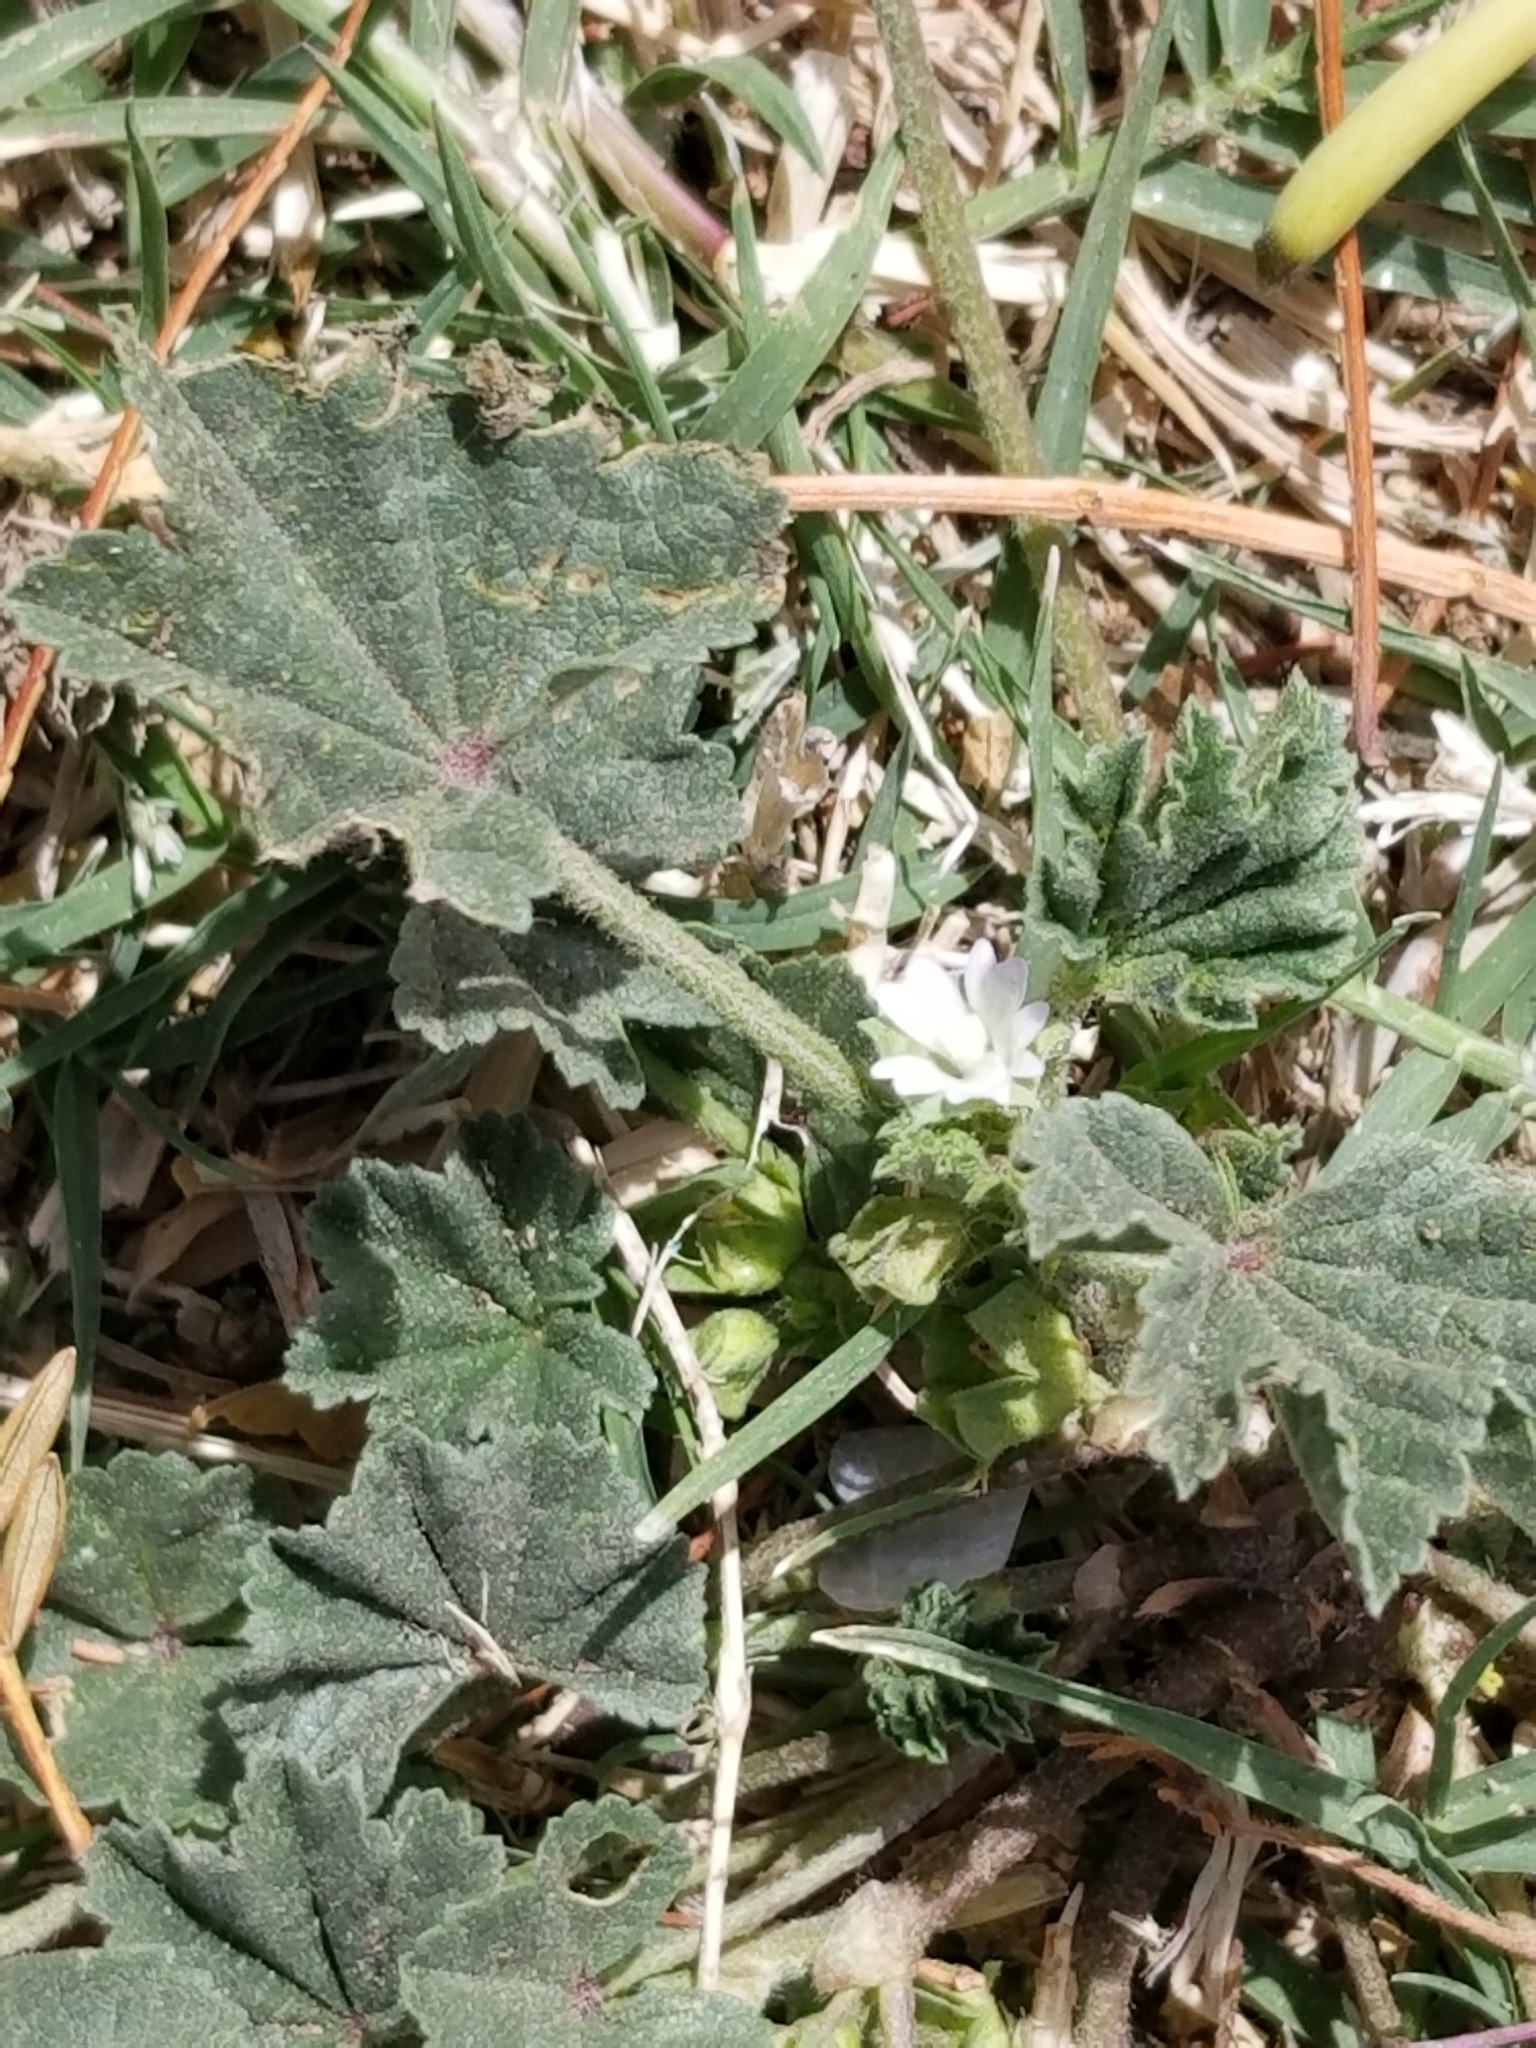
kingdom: Plantae
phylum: Tracheophyta
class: Magnoliopsida
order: Malvales
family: Malvaceae
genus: Malva
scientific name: Malva parviflora
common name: Least mallow
